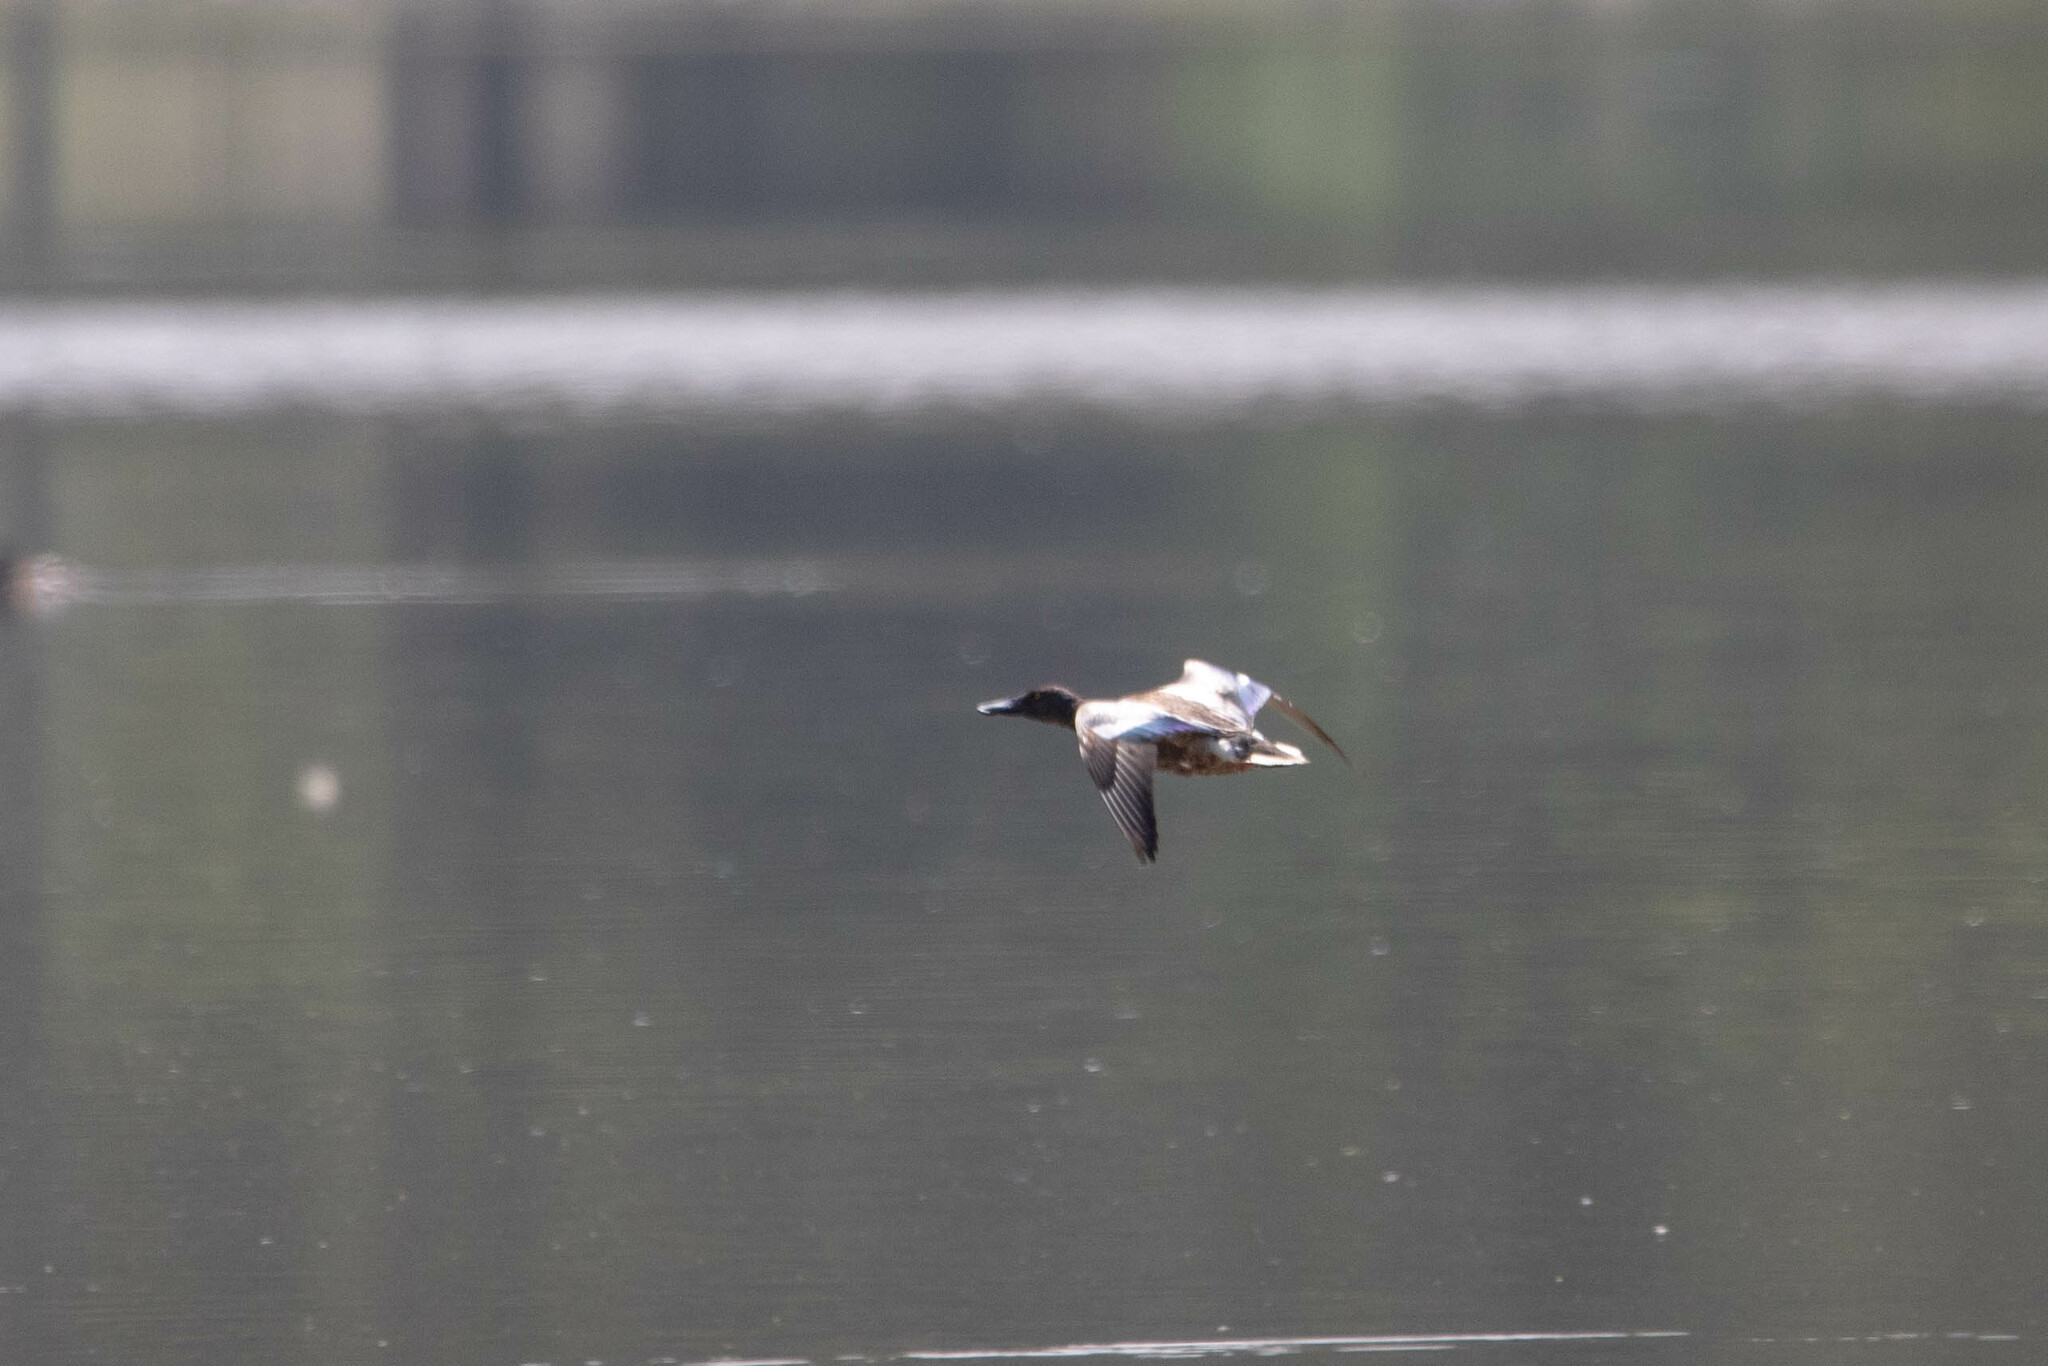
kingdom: Animalia
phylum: Chordata
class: Aves
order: Anseriformes
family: Anatidae
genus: Spatula
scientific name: Spatula clypeata
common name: Northern shoveler
